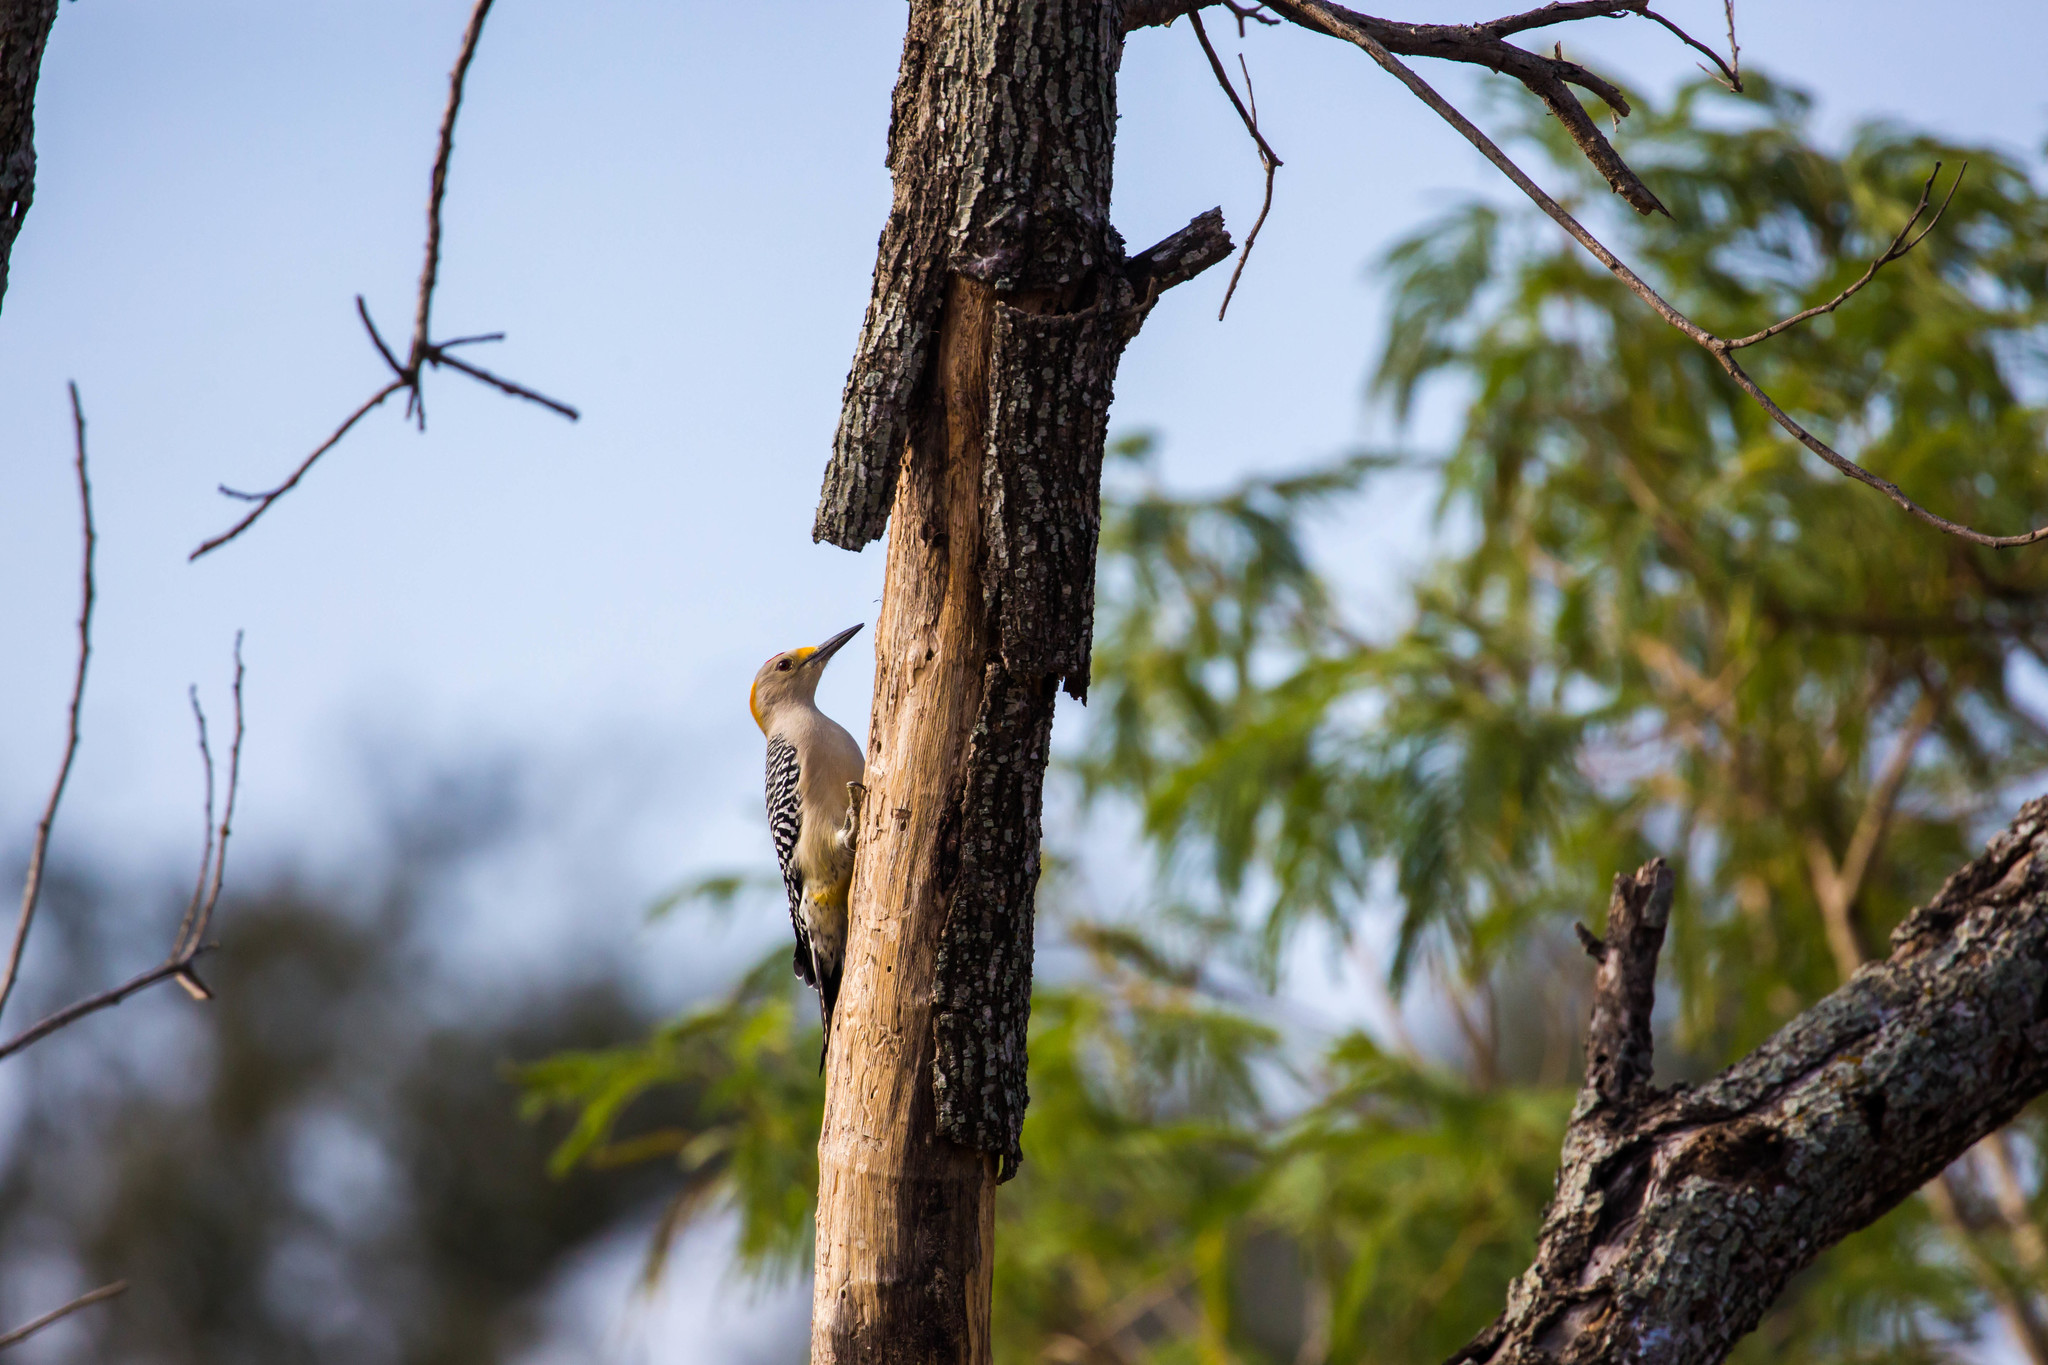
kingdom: Animalia
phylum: Chordata
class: Aves
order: Piciformes
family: Picidae
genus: Melanerpes
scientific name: Melanerpes aurifrons
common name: Golden-fronted woodpecker
